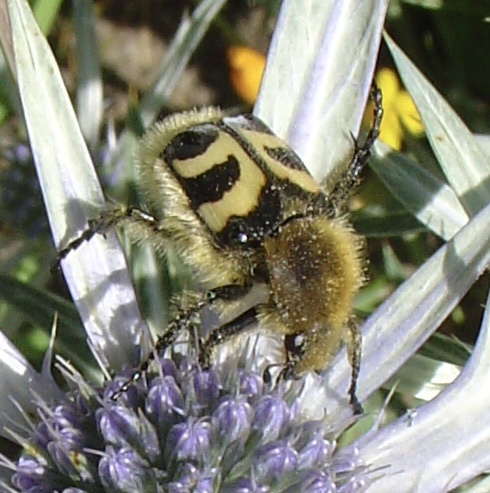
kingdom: Animalia
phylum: Arthropoda
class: Insecta
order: Coleoptera
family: Scarabaeidae
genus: Trichius
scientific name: Trichius fasciatus
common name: Bee beetle
